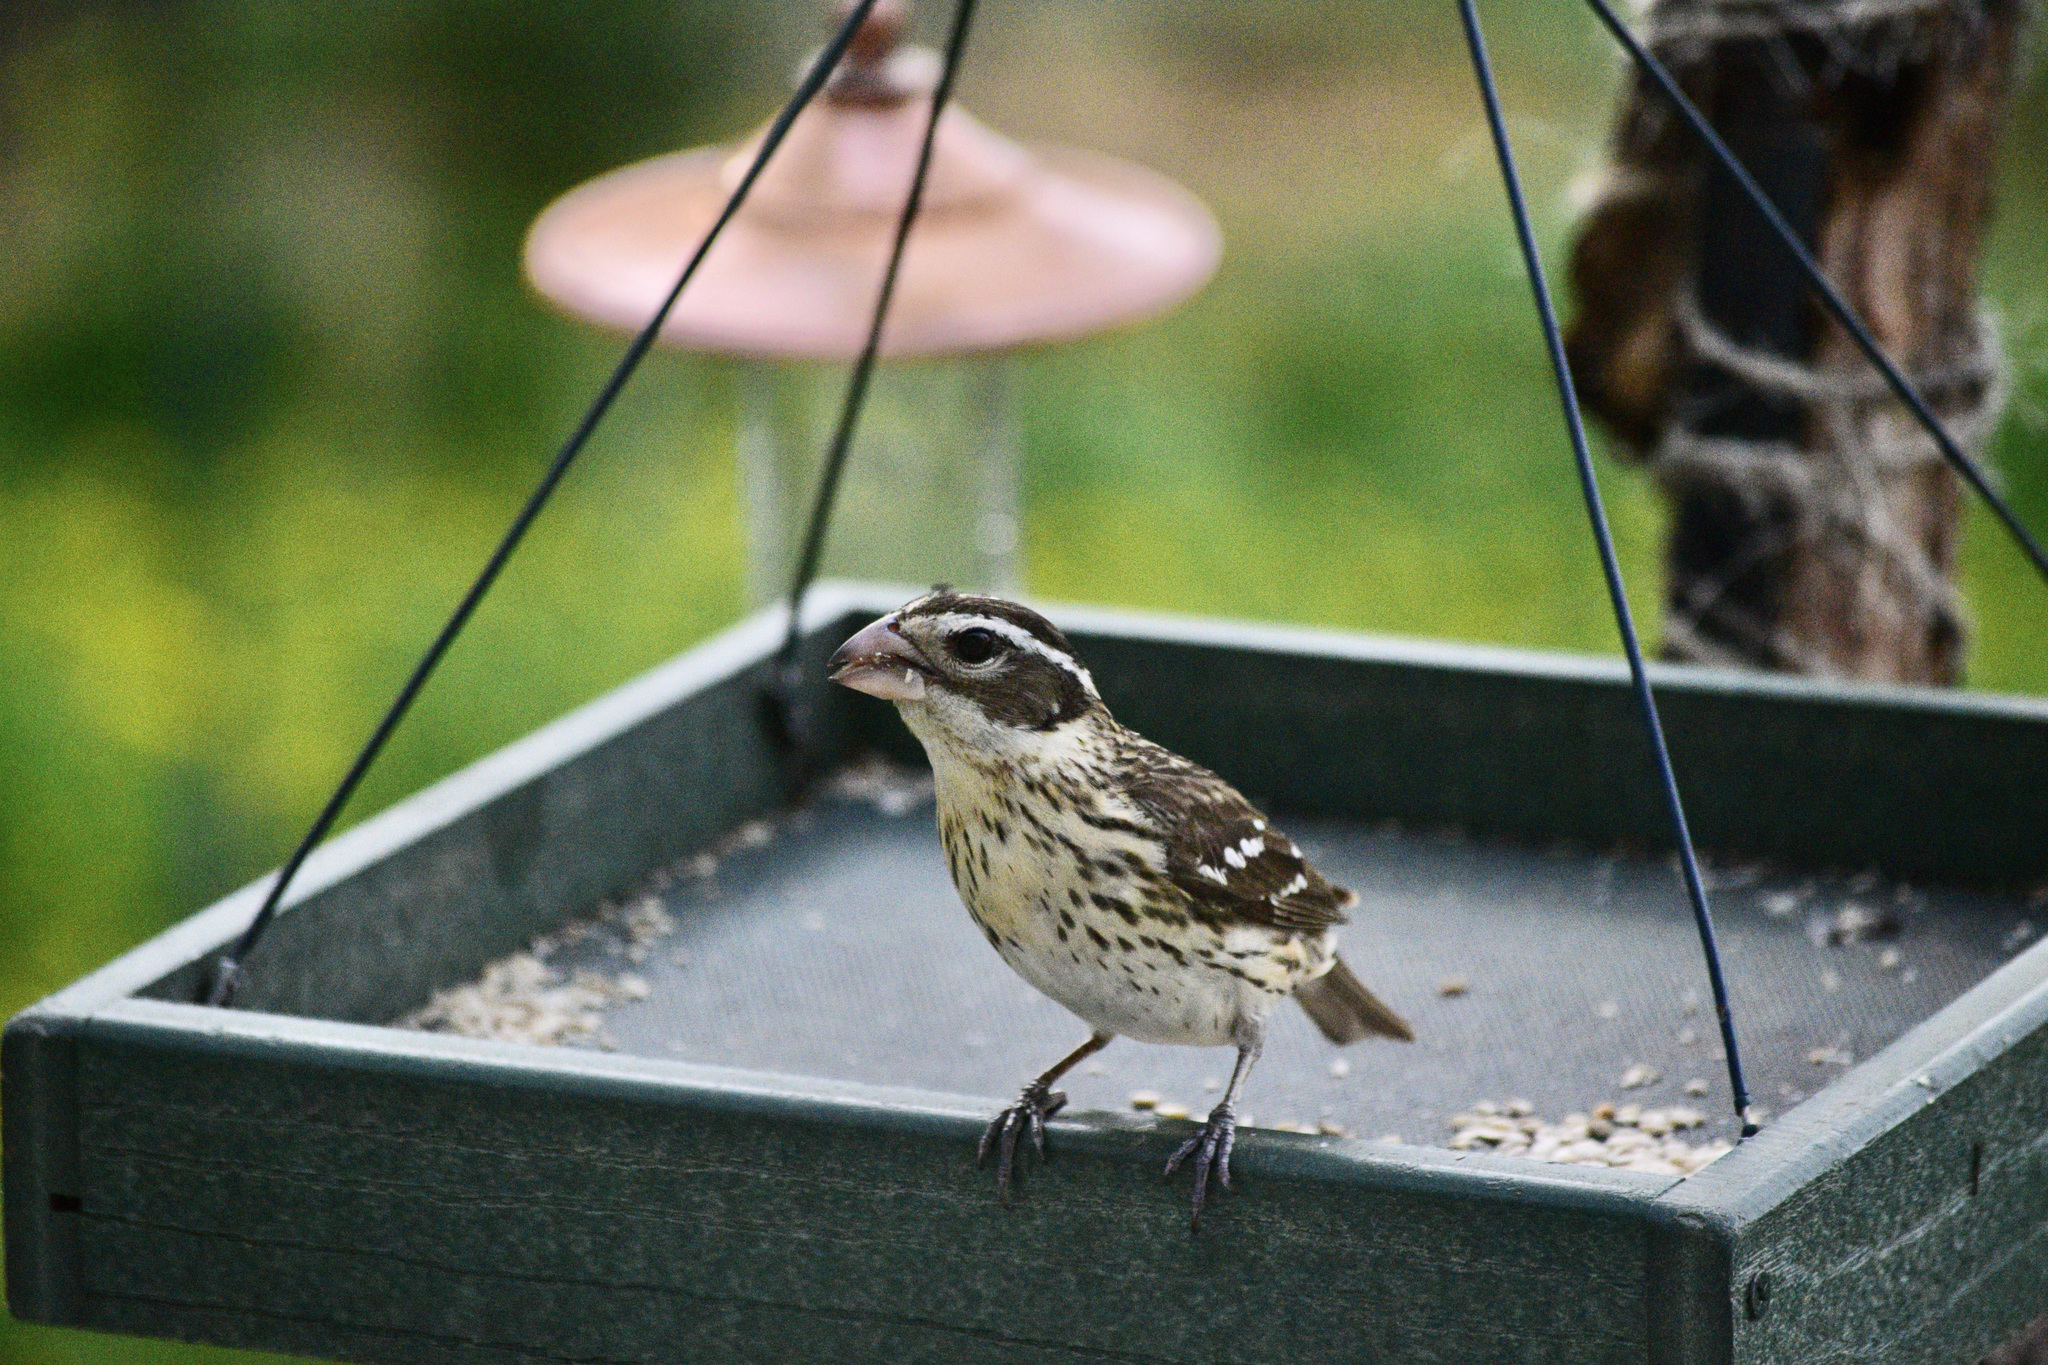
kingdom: Animalia
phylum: Chordata
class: Aves
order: Passeriformes
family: Cardinalidae
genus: Pheucticus
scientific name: Pheucticus ludovicianus
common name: Rose-breasted grosbeak
